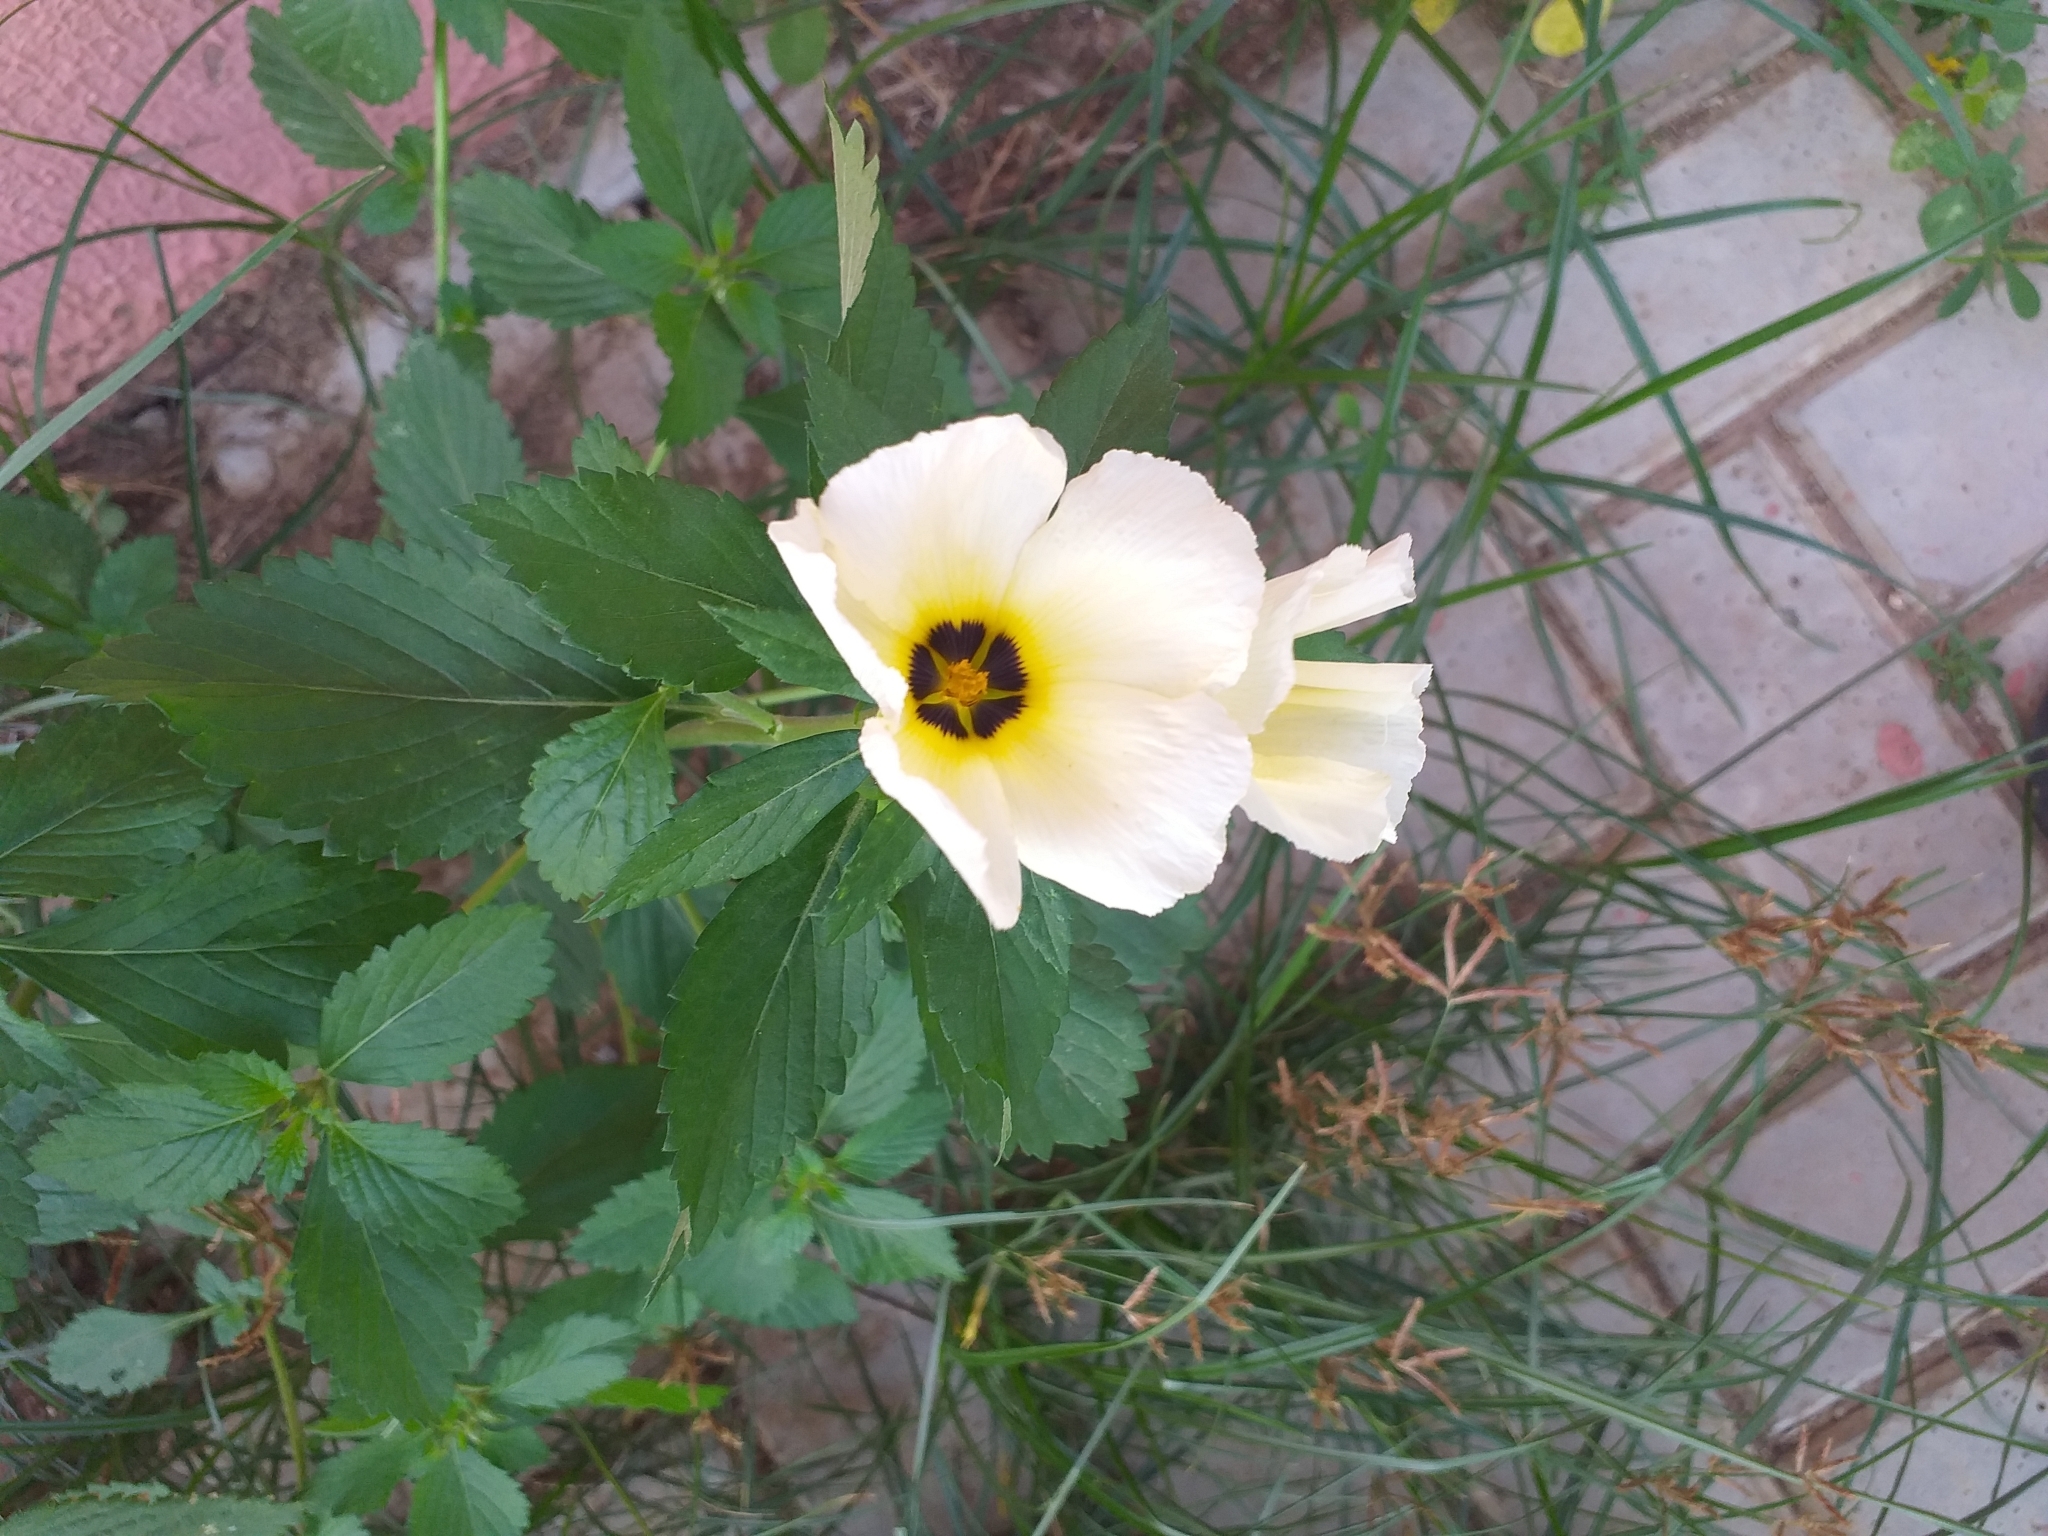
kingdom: Plantae
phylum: Tracheophyta
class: Magnoliopsida
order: Malpighiales
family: Turneraceae
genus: Turnera
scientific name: Turnera subulata
